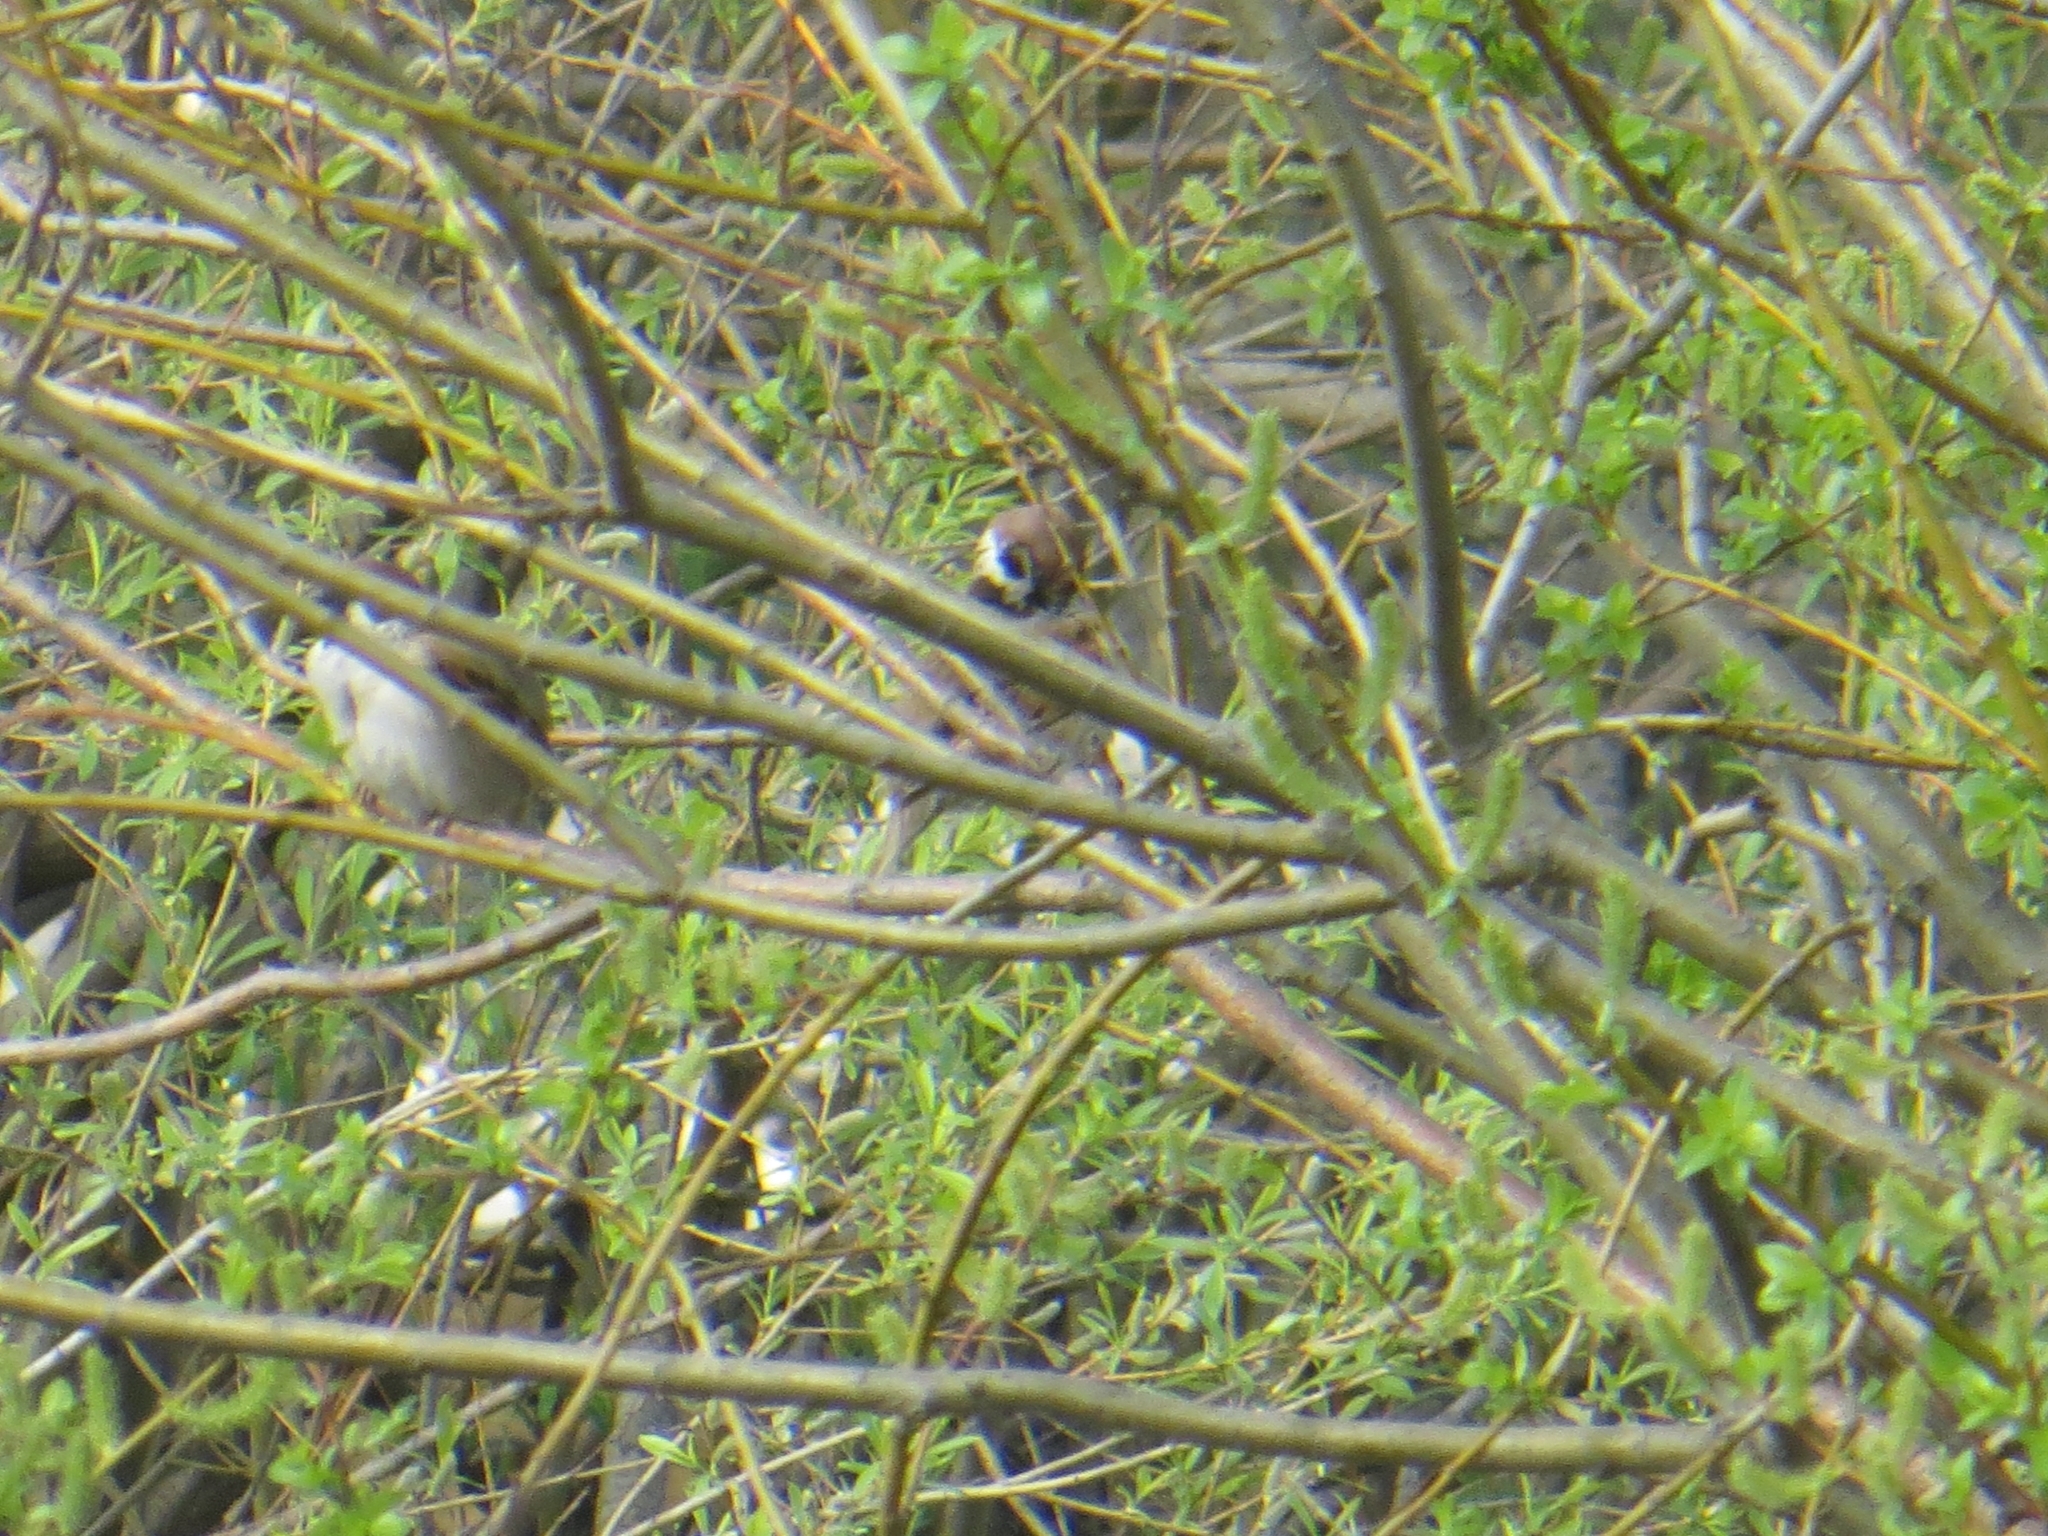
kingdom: Animalia
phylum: Chordata
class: Aves
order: Passeriformes
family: Passeridae
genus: Passer
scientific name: Passer montanus
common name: Eurasian tree sparrow
